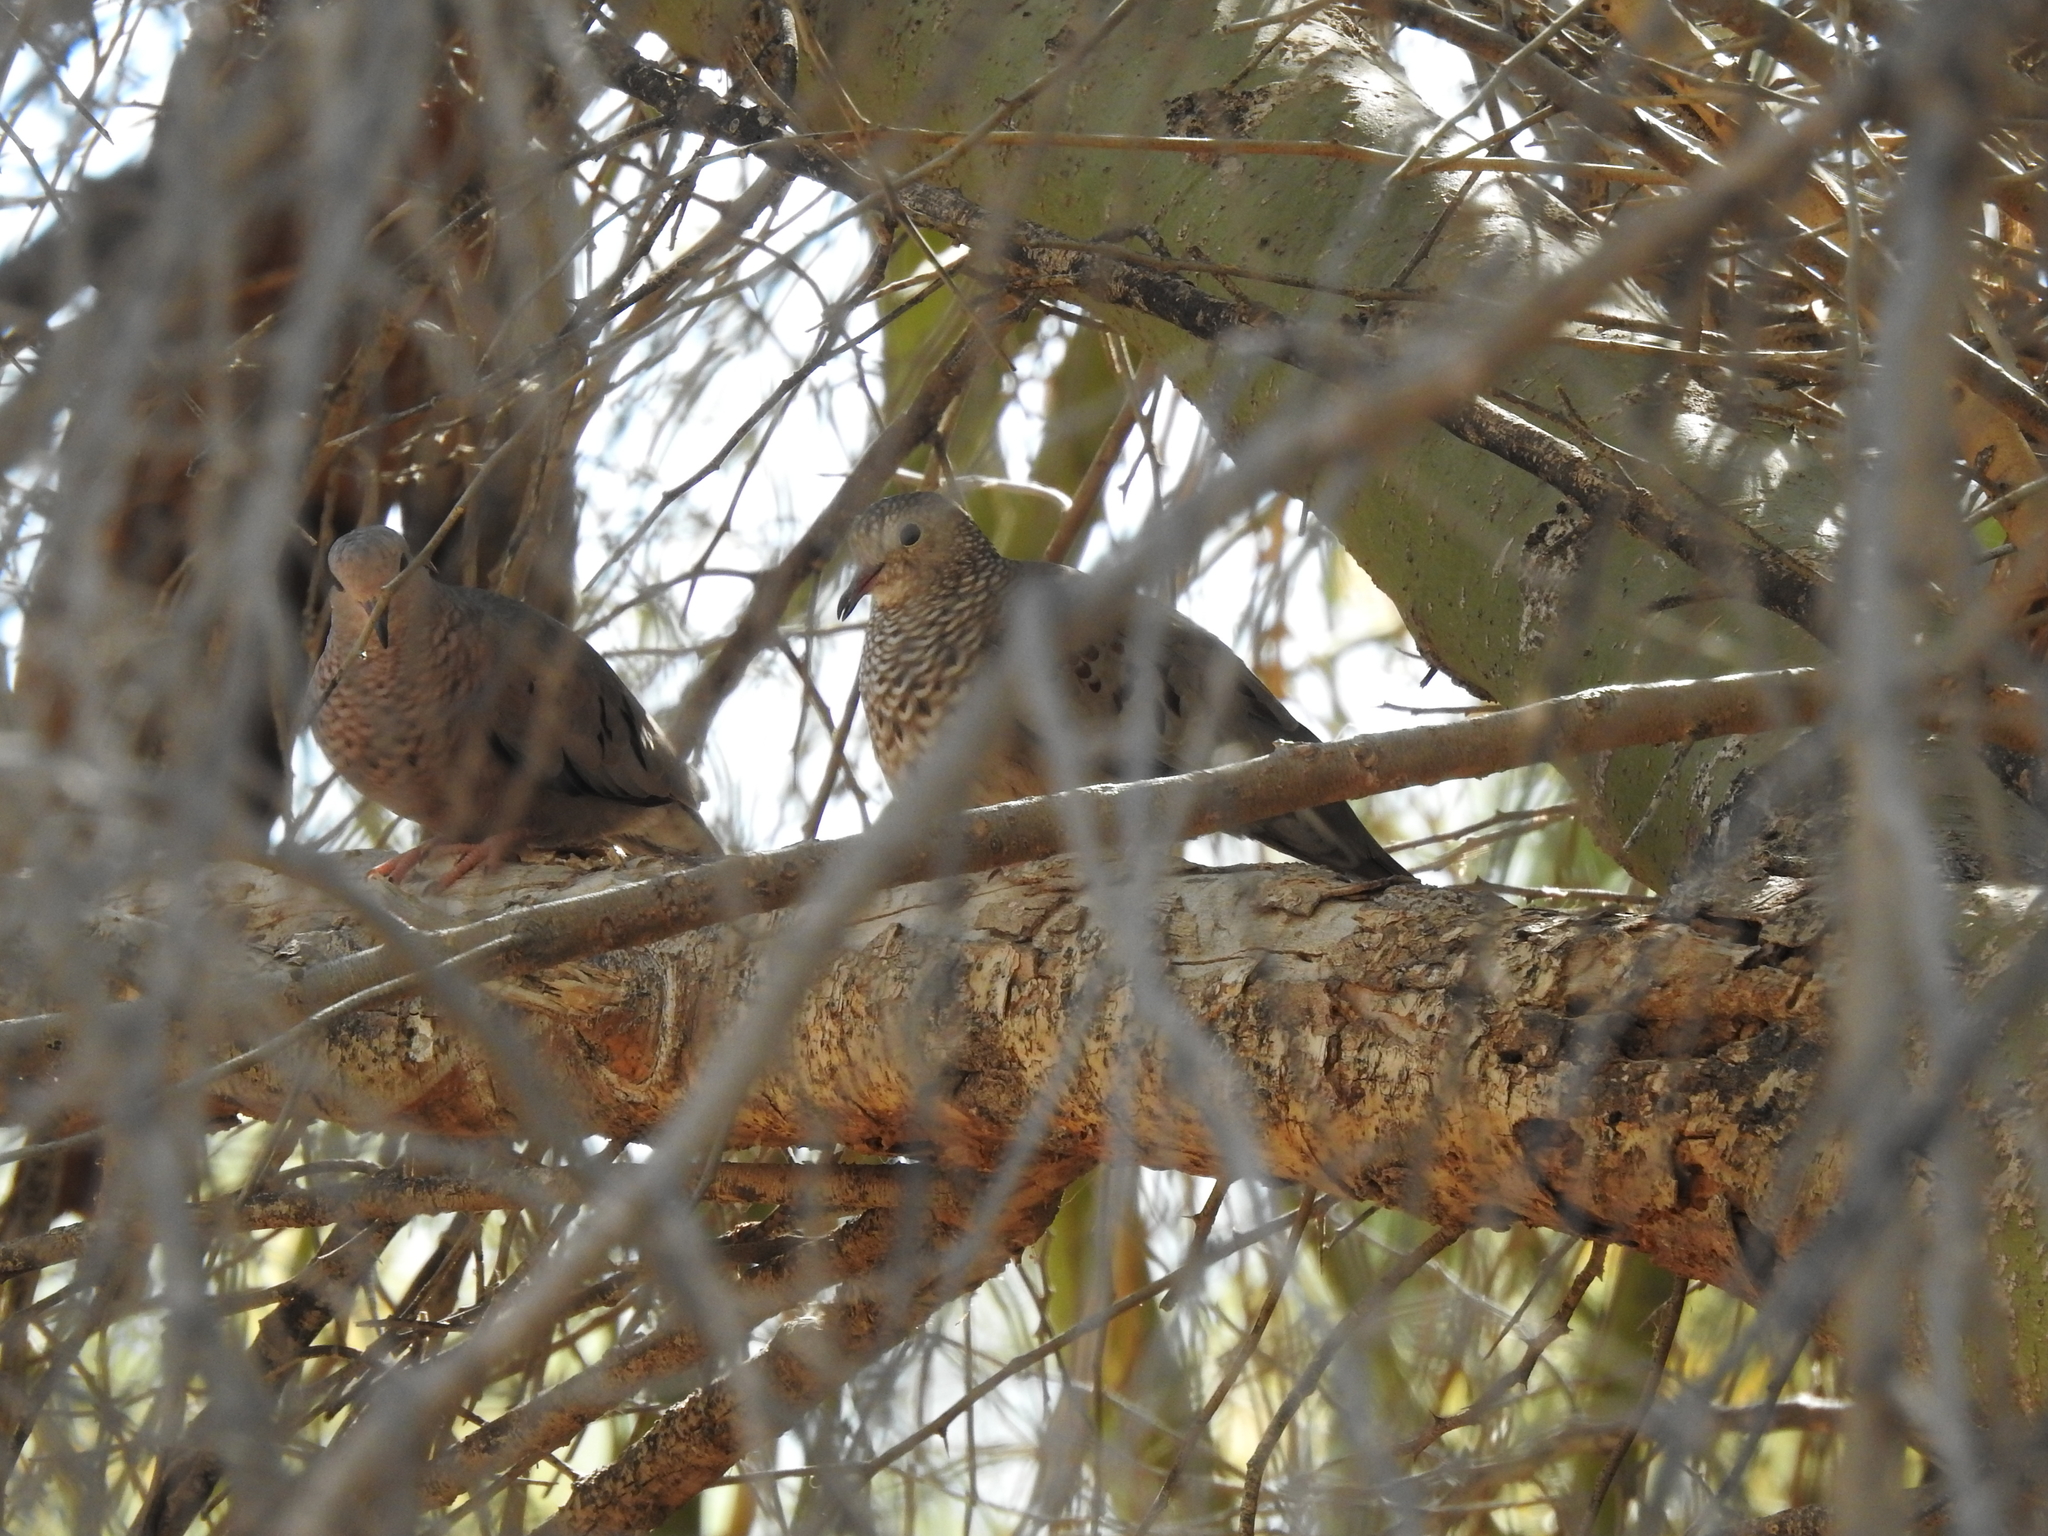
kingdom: Animalia
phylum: Chordata
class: Aves
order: Columbiformes
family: Columbidae
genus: Columbina
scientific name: Columbina passerina
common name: Common ground-dove
